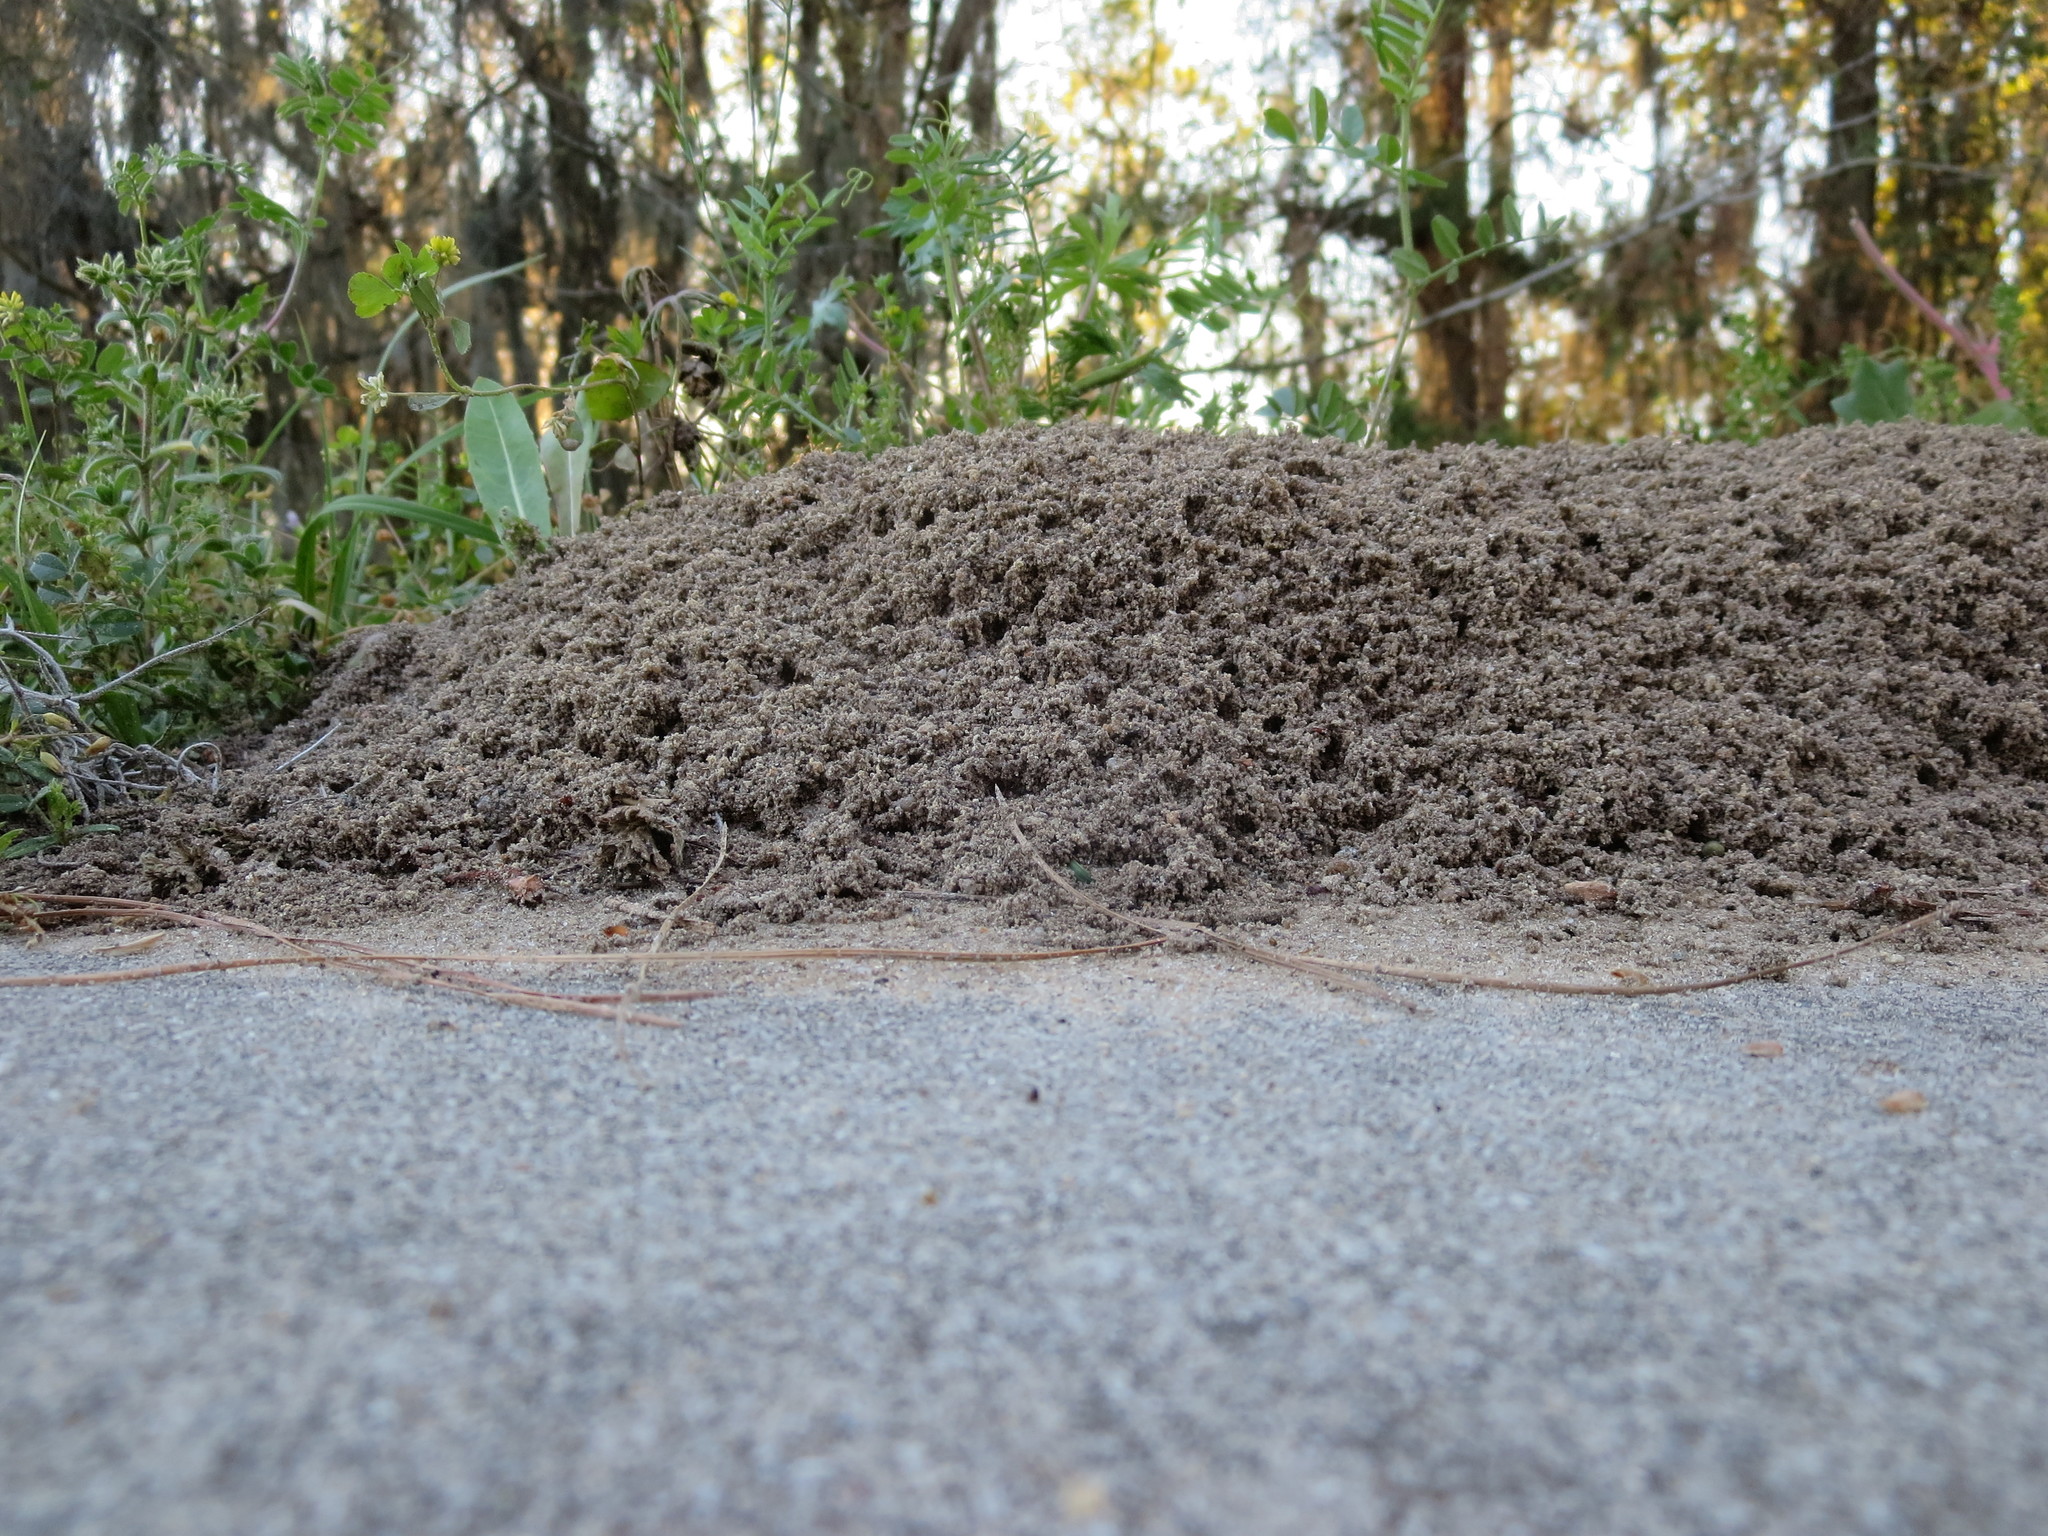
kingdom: Animalia
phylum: Arthropoda
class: Insecta
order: Hymenoptera
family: Formicidae
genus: Solenopsis
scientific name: Solenopsis invicta
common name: Red imported fire ant
